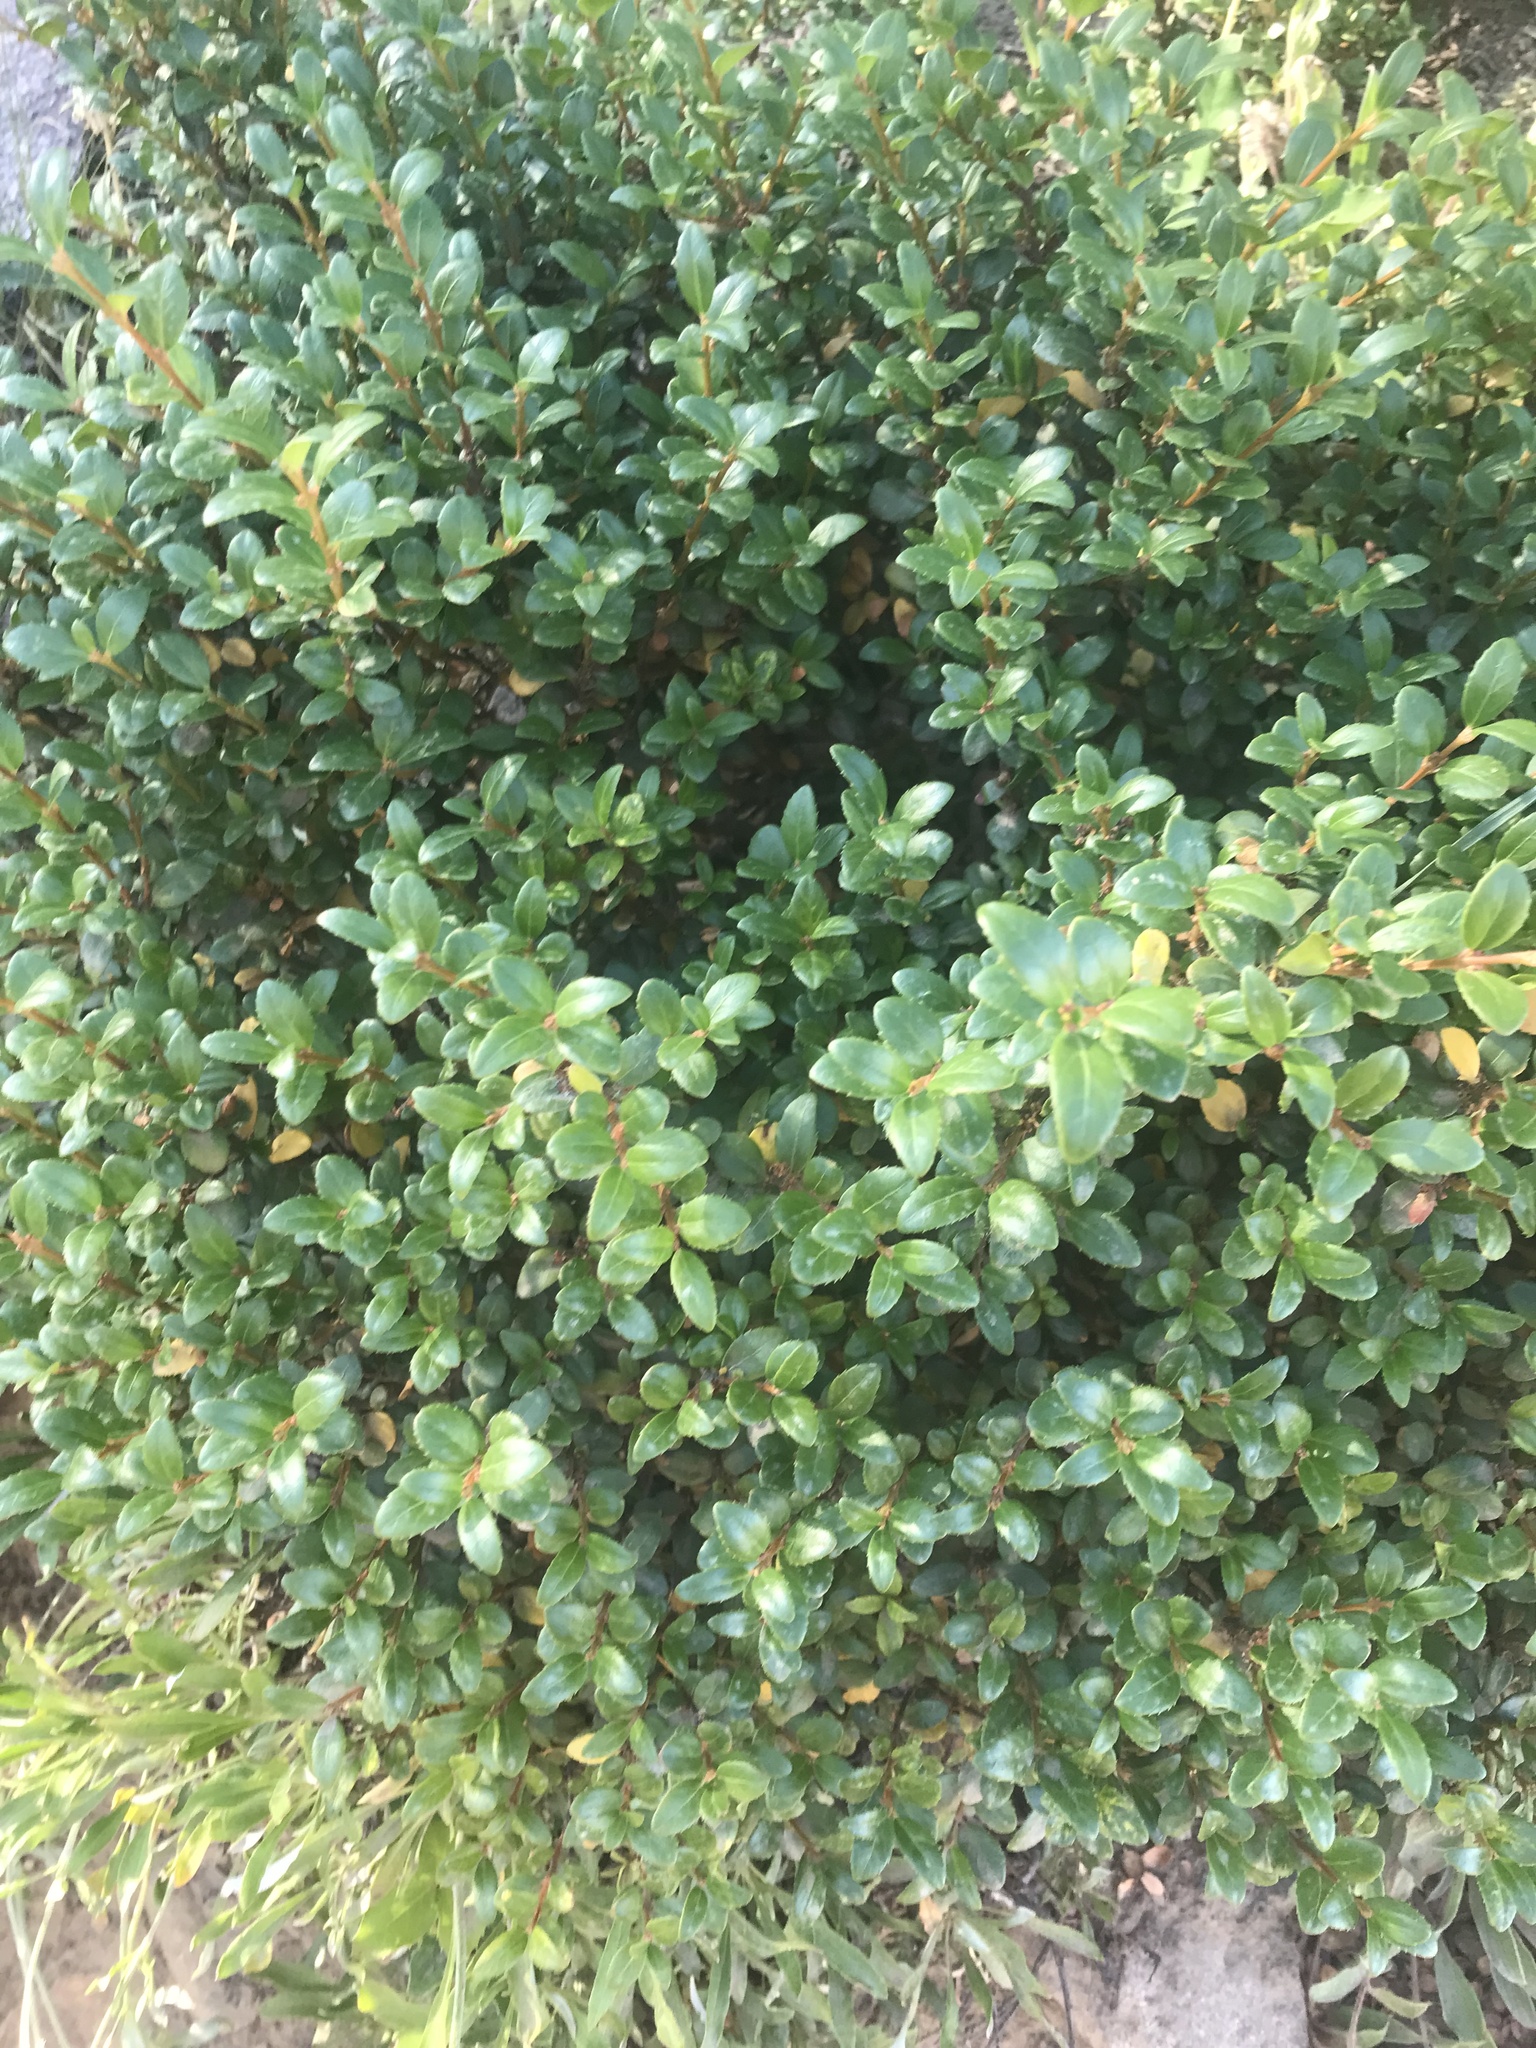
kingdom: Plantae
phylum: Tracheophyta
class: Magnoliopsida
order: Celastrales
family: Celastraceae
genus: Paxistima
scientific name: Paxistima myrsinites
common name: Mountain-lover
